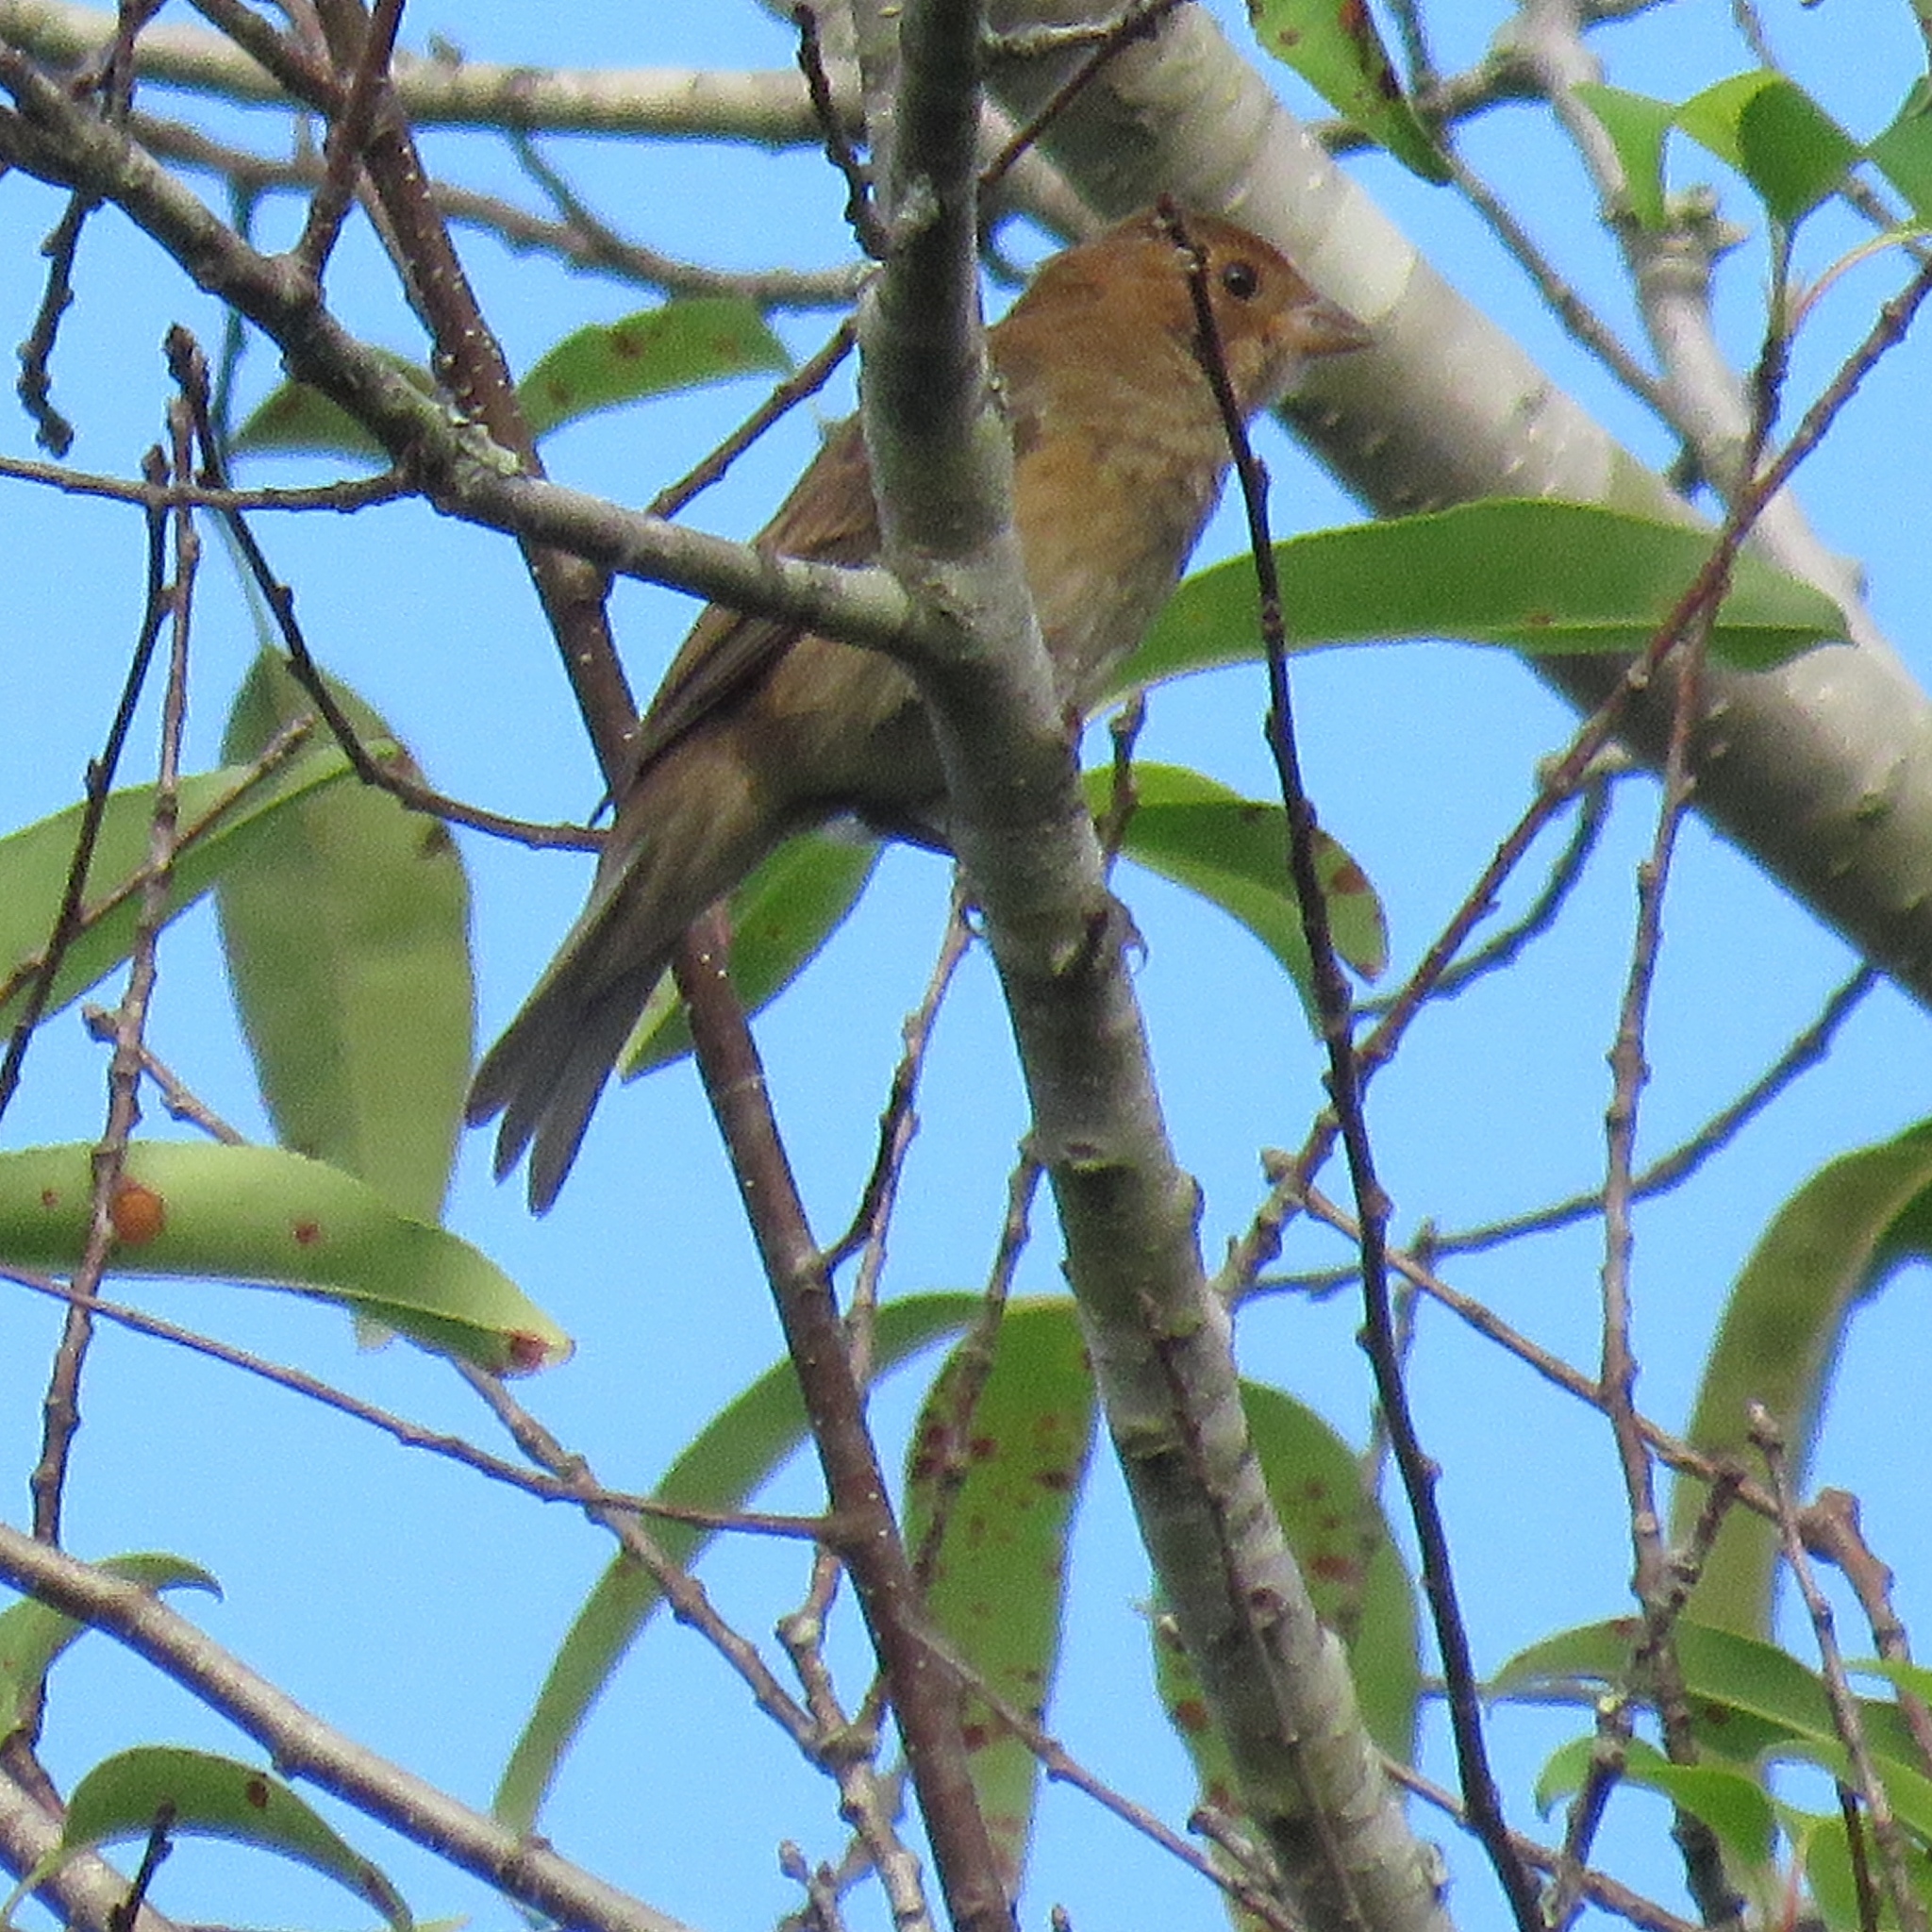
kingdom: Animalia
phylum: Chordata
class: Aves
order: Passeriformes
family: Cardinalidae
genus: Passerina
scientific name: Passerina cyanea
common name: Indigo bunting
